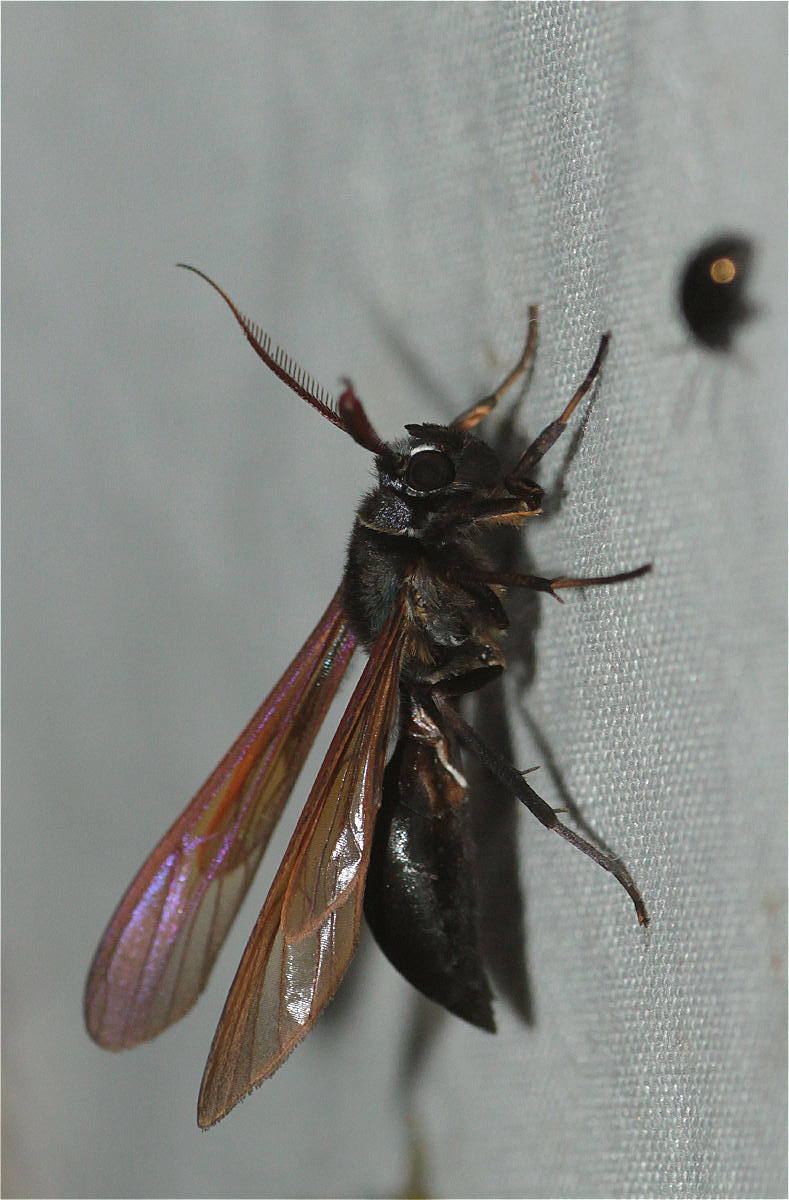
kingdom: Animalia
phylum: Arthropoda
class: Insecta
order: Lepidoptera
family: Erebidae
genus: Pseudosphex
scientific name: Pseudosphex ichneumonea
